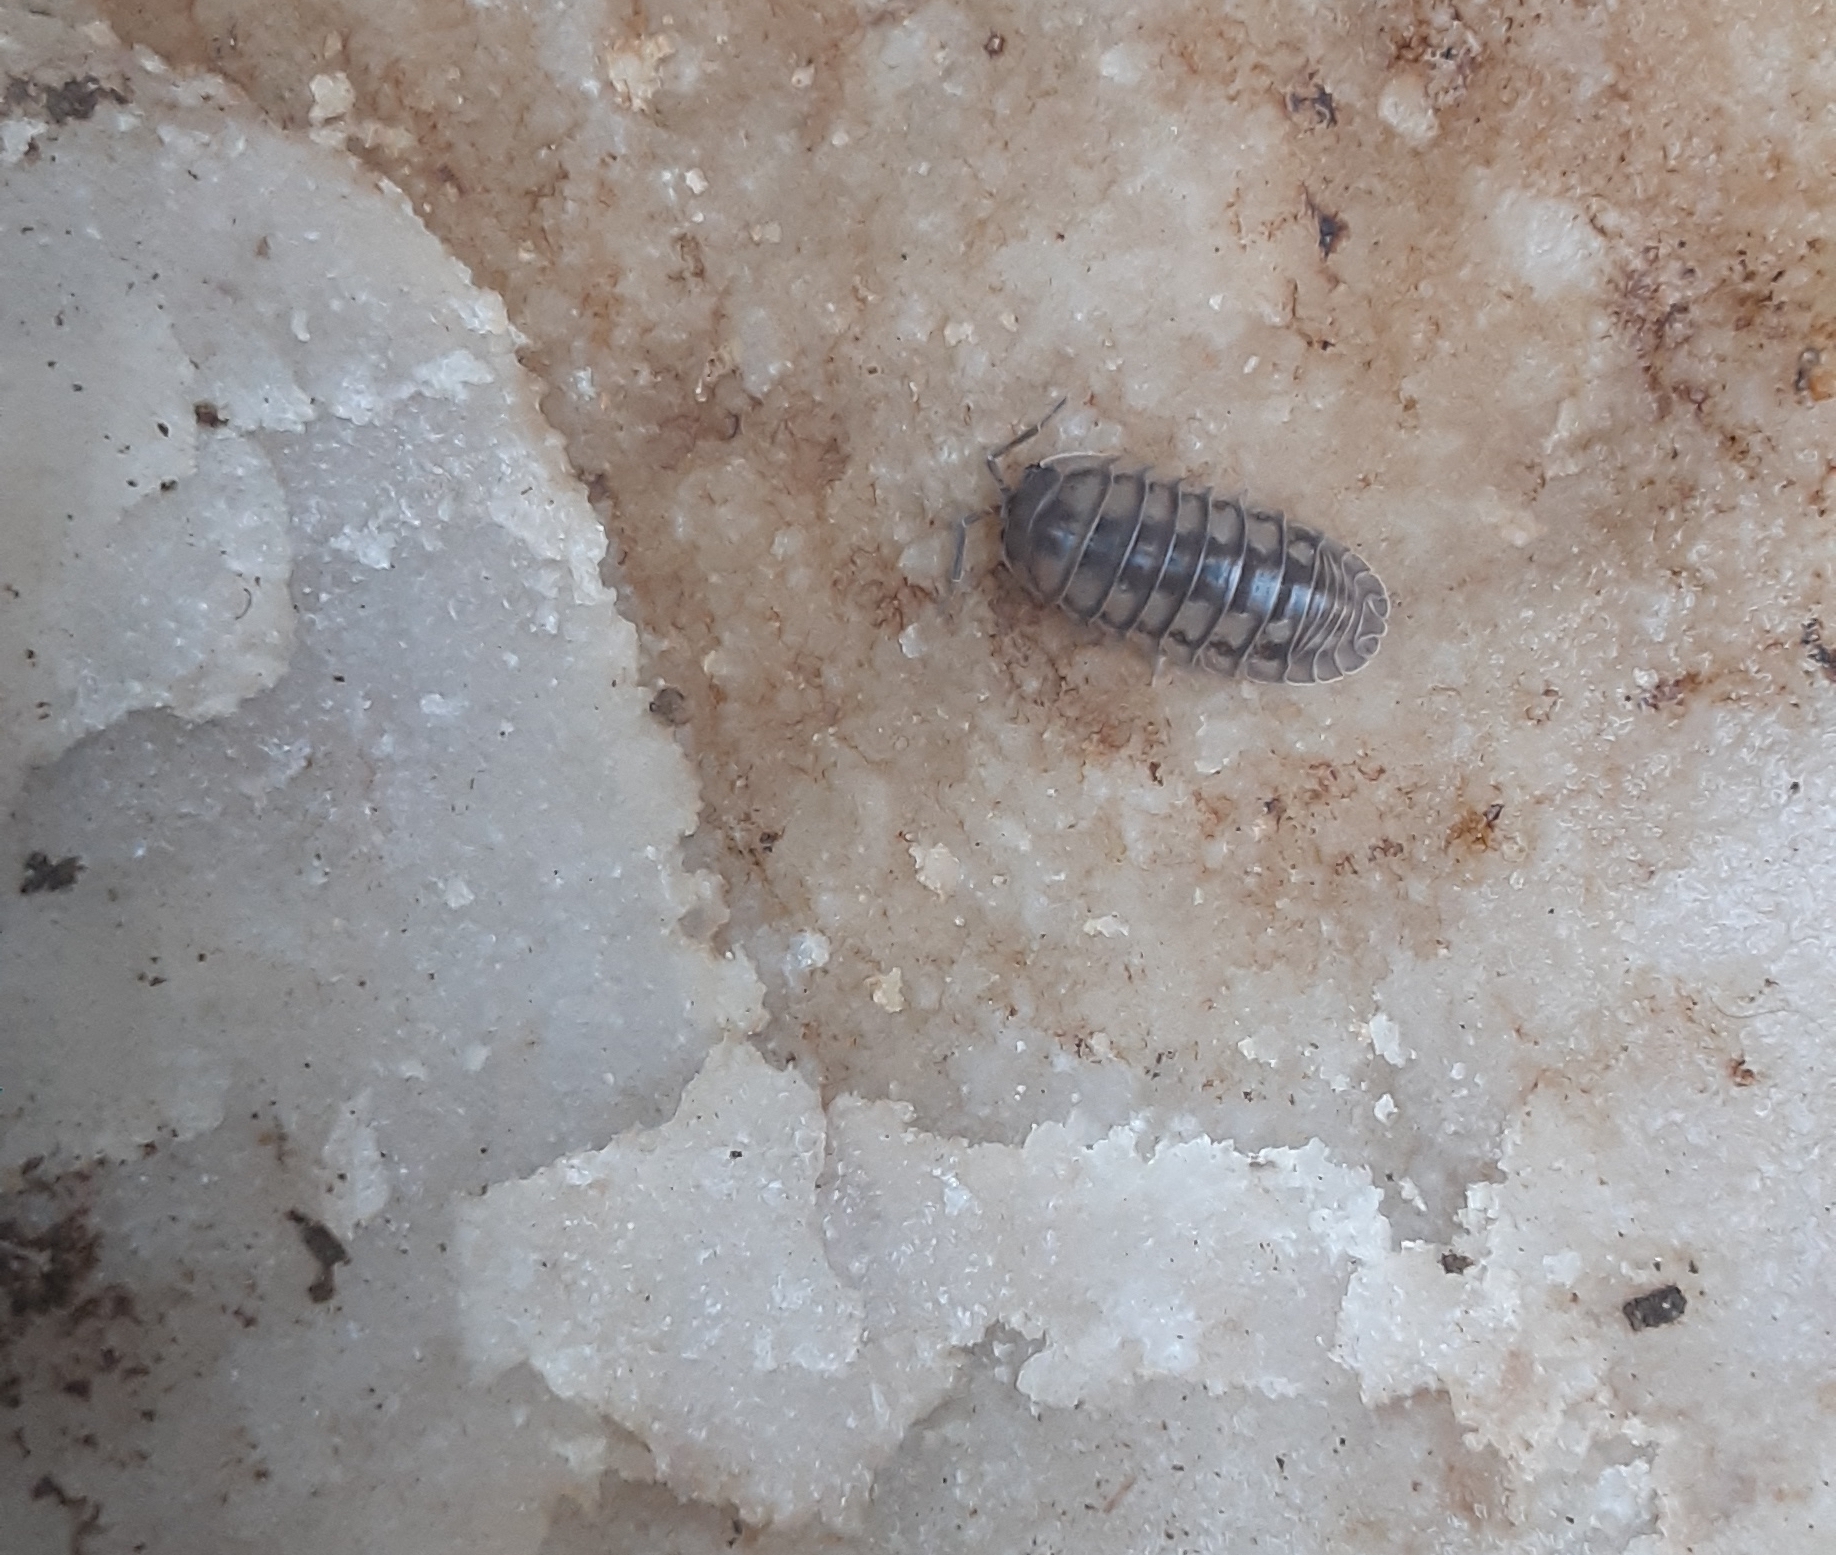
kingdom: Animalia
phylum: Arthropoda
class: Malacostraca
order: Isopoda
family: Armadillidiidae
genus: Armadillidium
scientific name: Armadillidium nasatum
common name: Isopod
